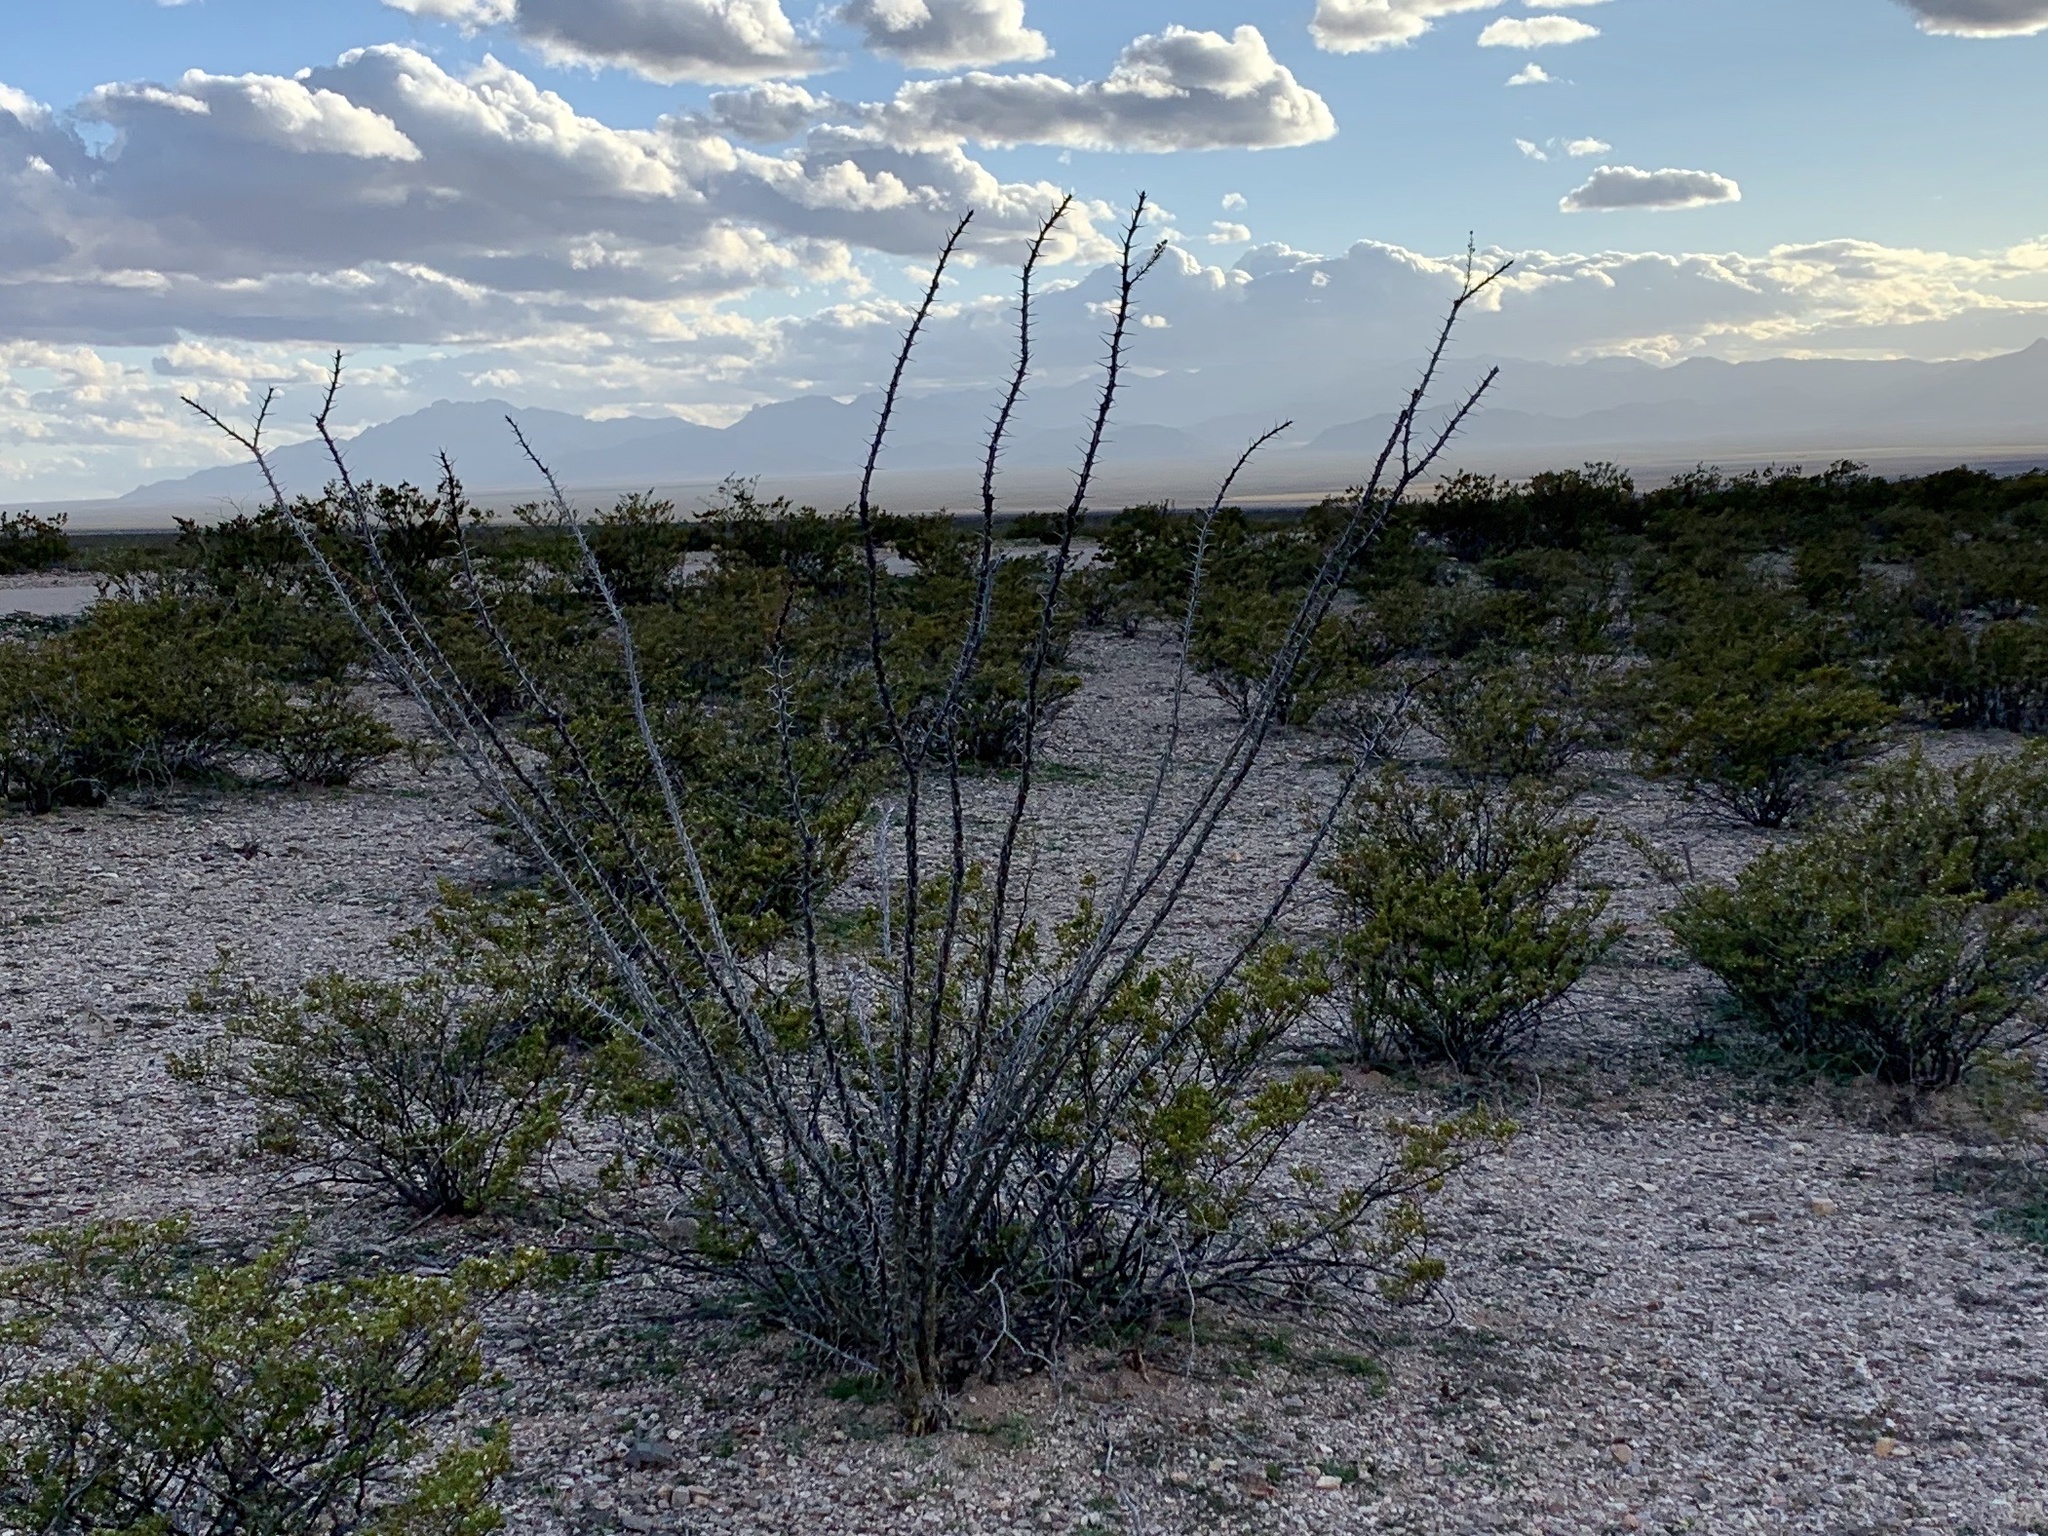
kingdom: Plantae
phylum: Tracheophyta
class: Magnoliopsida
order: Ericales
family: Fouquieriaceae
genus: Fouquieria
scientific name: Fouquieria splendens
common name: Vine-cactus
